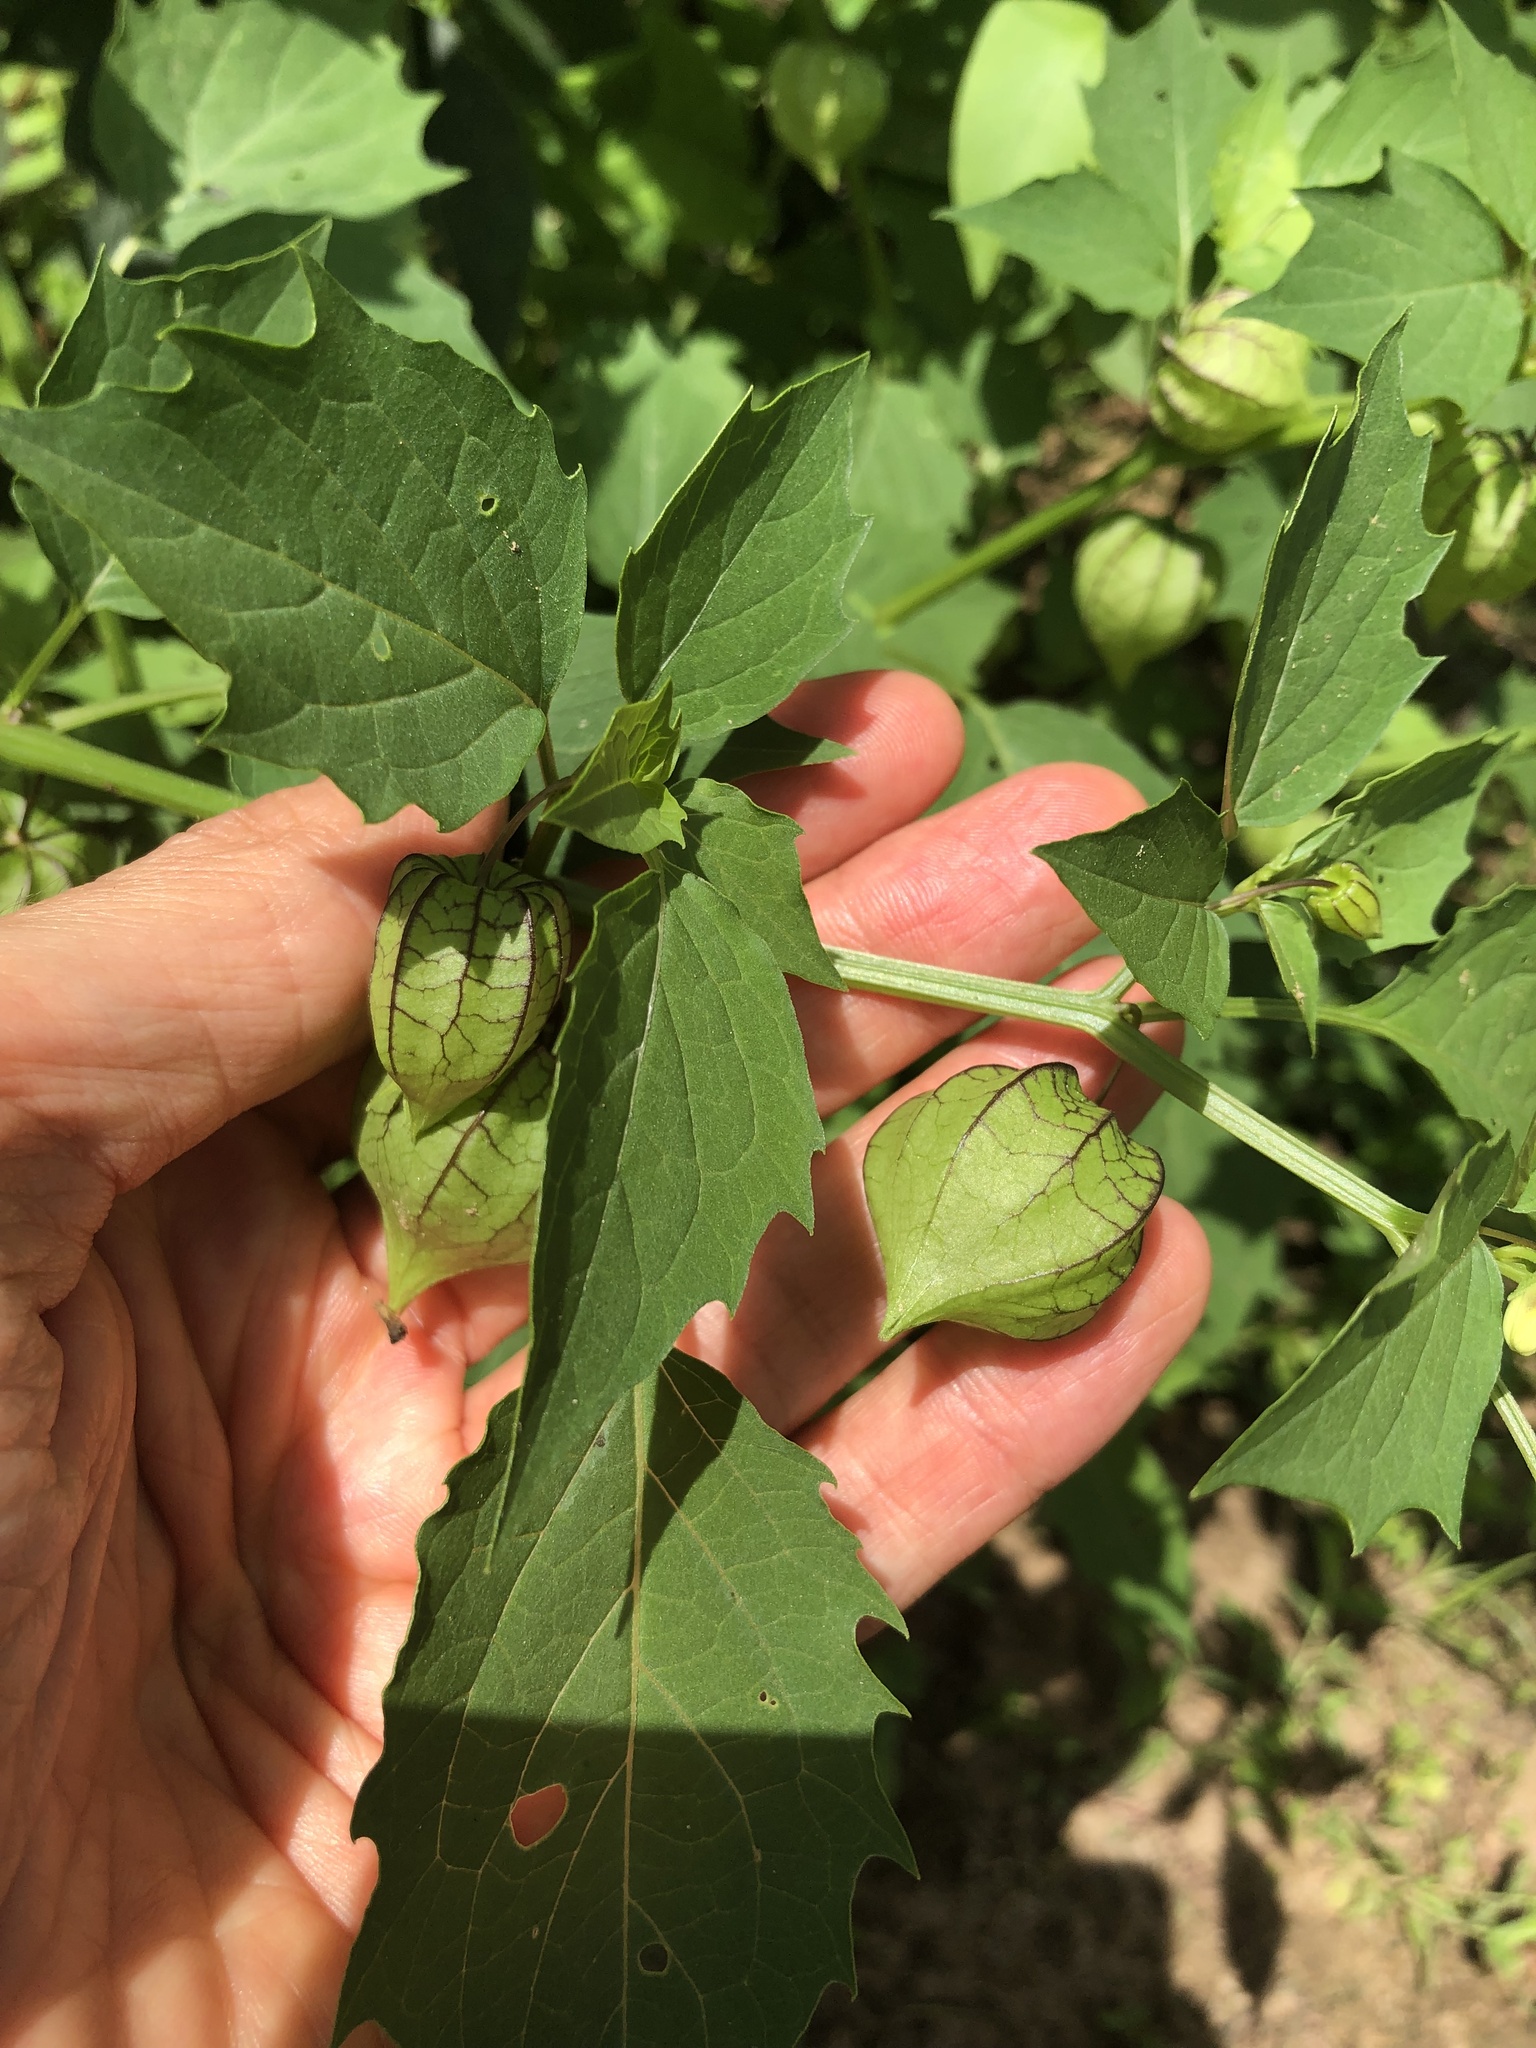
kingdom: Plantae
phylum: Tracheophyta
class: Magnoliopsida
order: Solanales
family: Solanaceae
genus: Physalis
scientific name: Physalis angulata
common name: Angular winter-cherry
